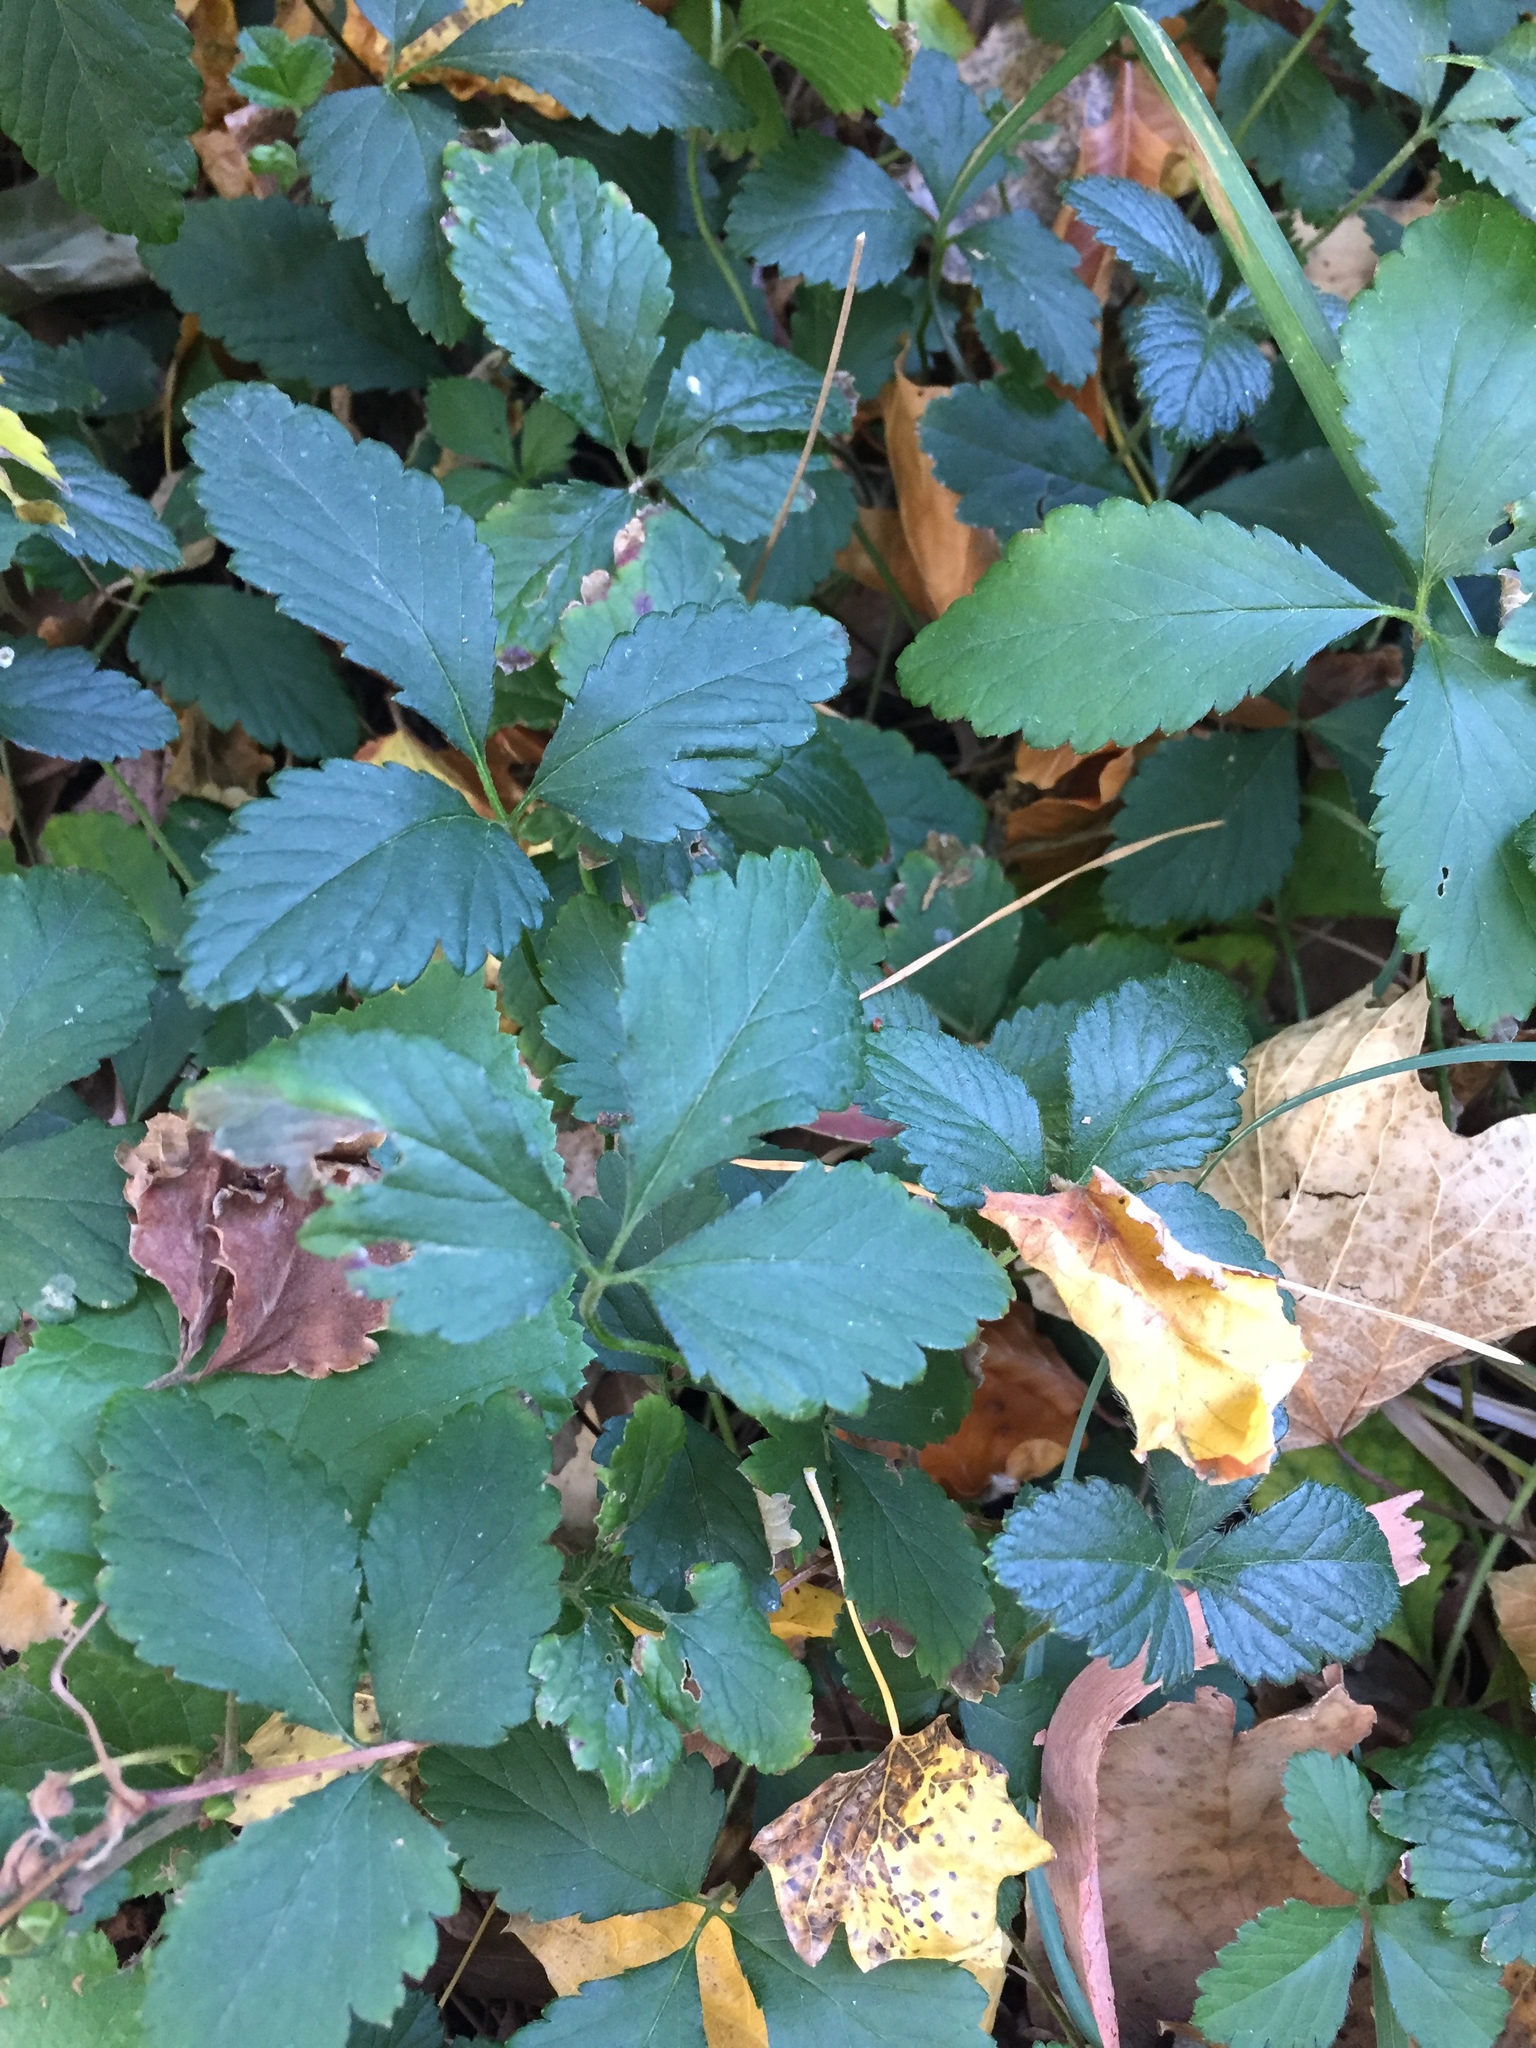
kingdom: Plantae
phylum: Tracheophyta
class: Magnoliopsida
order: Rosales
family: Rosaceae
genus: Potentilla
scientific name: Potentilla indica
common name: Yellow-flowered strawberry
